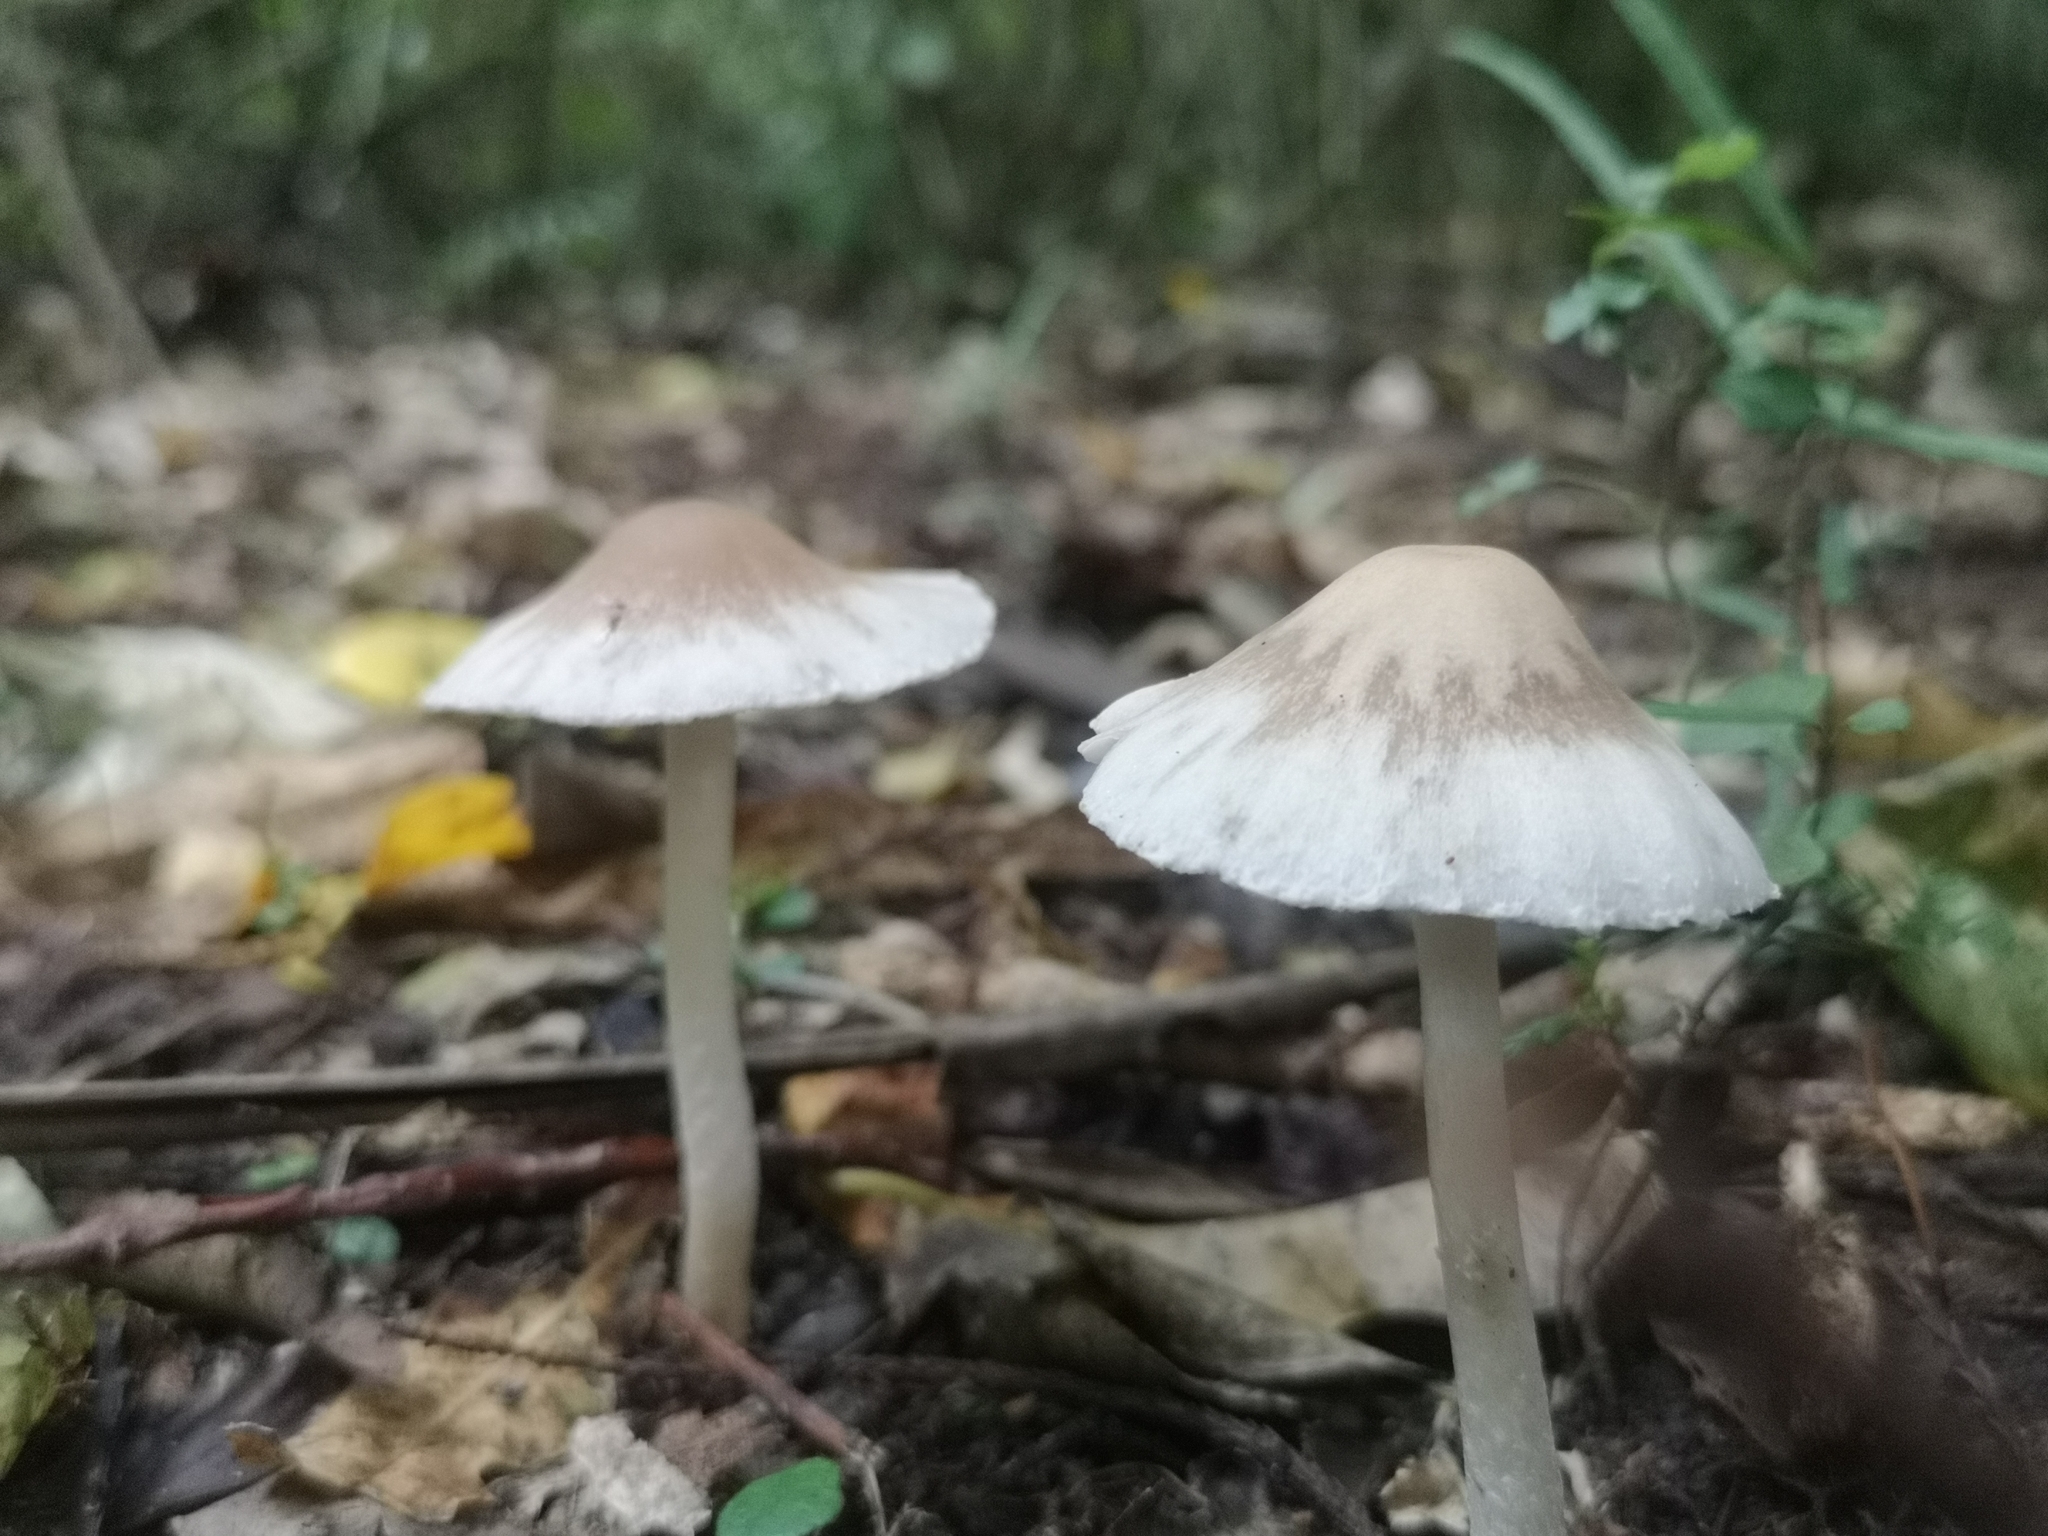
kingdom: Fungi
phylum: Basidiomycota
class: Agaricomycetes
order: Agaricales
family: Psathyrellaceae
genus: Candolleomyces
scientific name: Candolleomyces candolleanus
